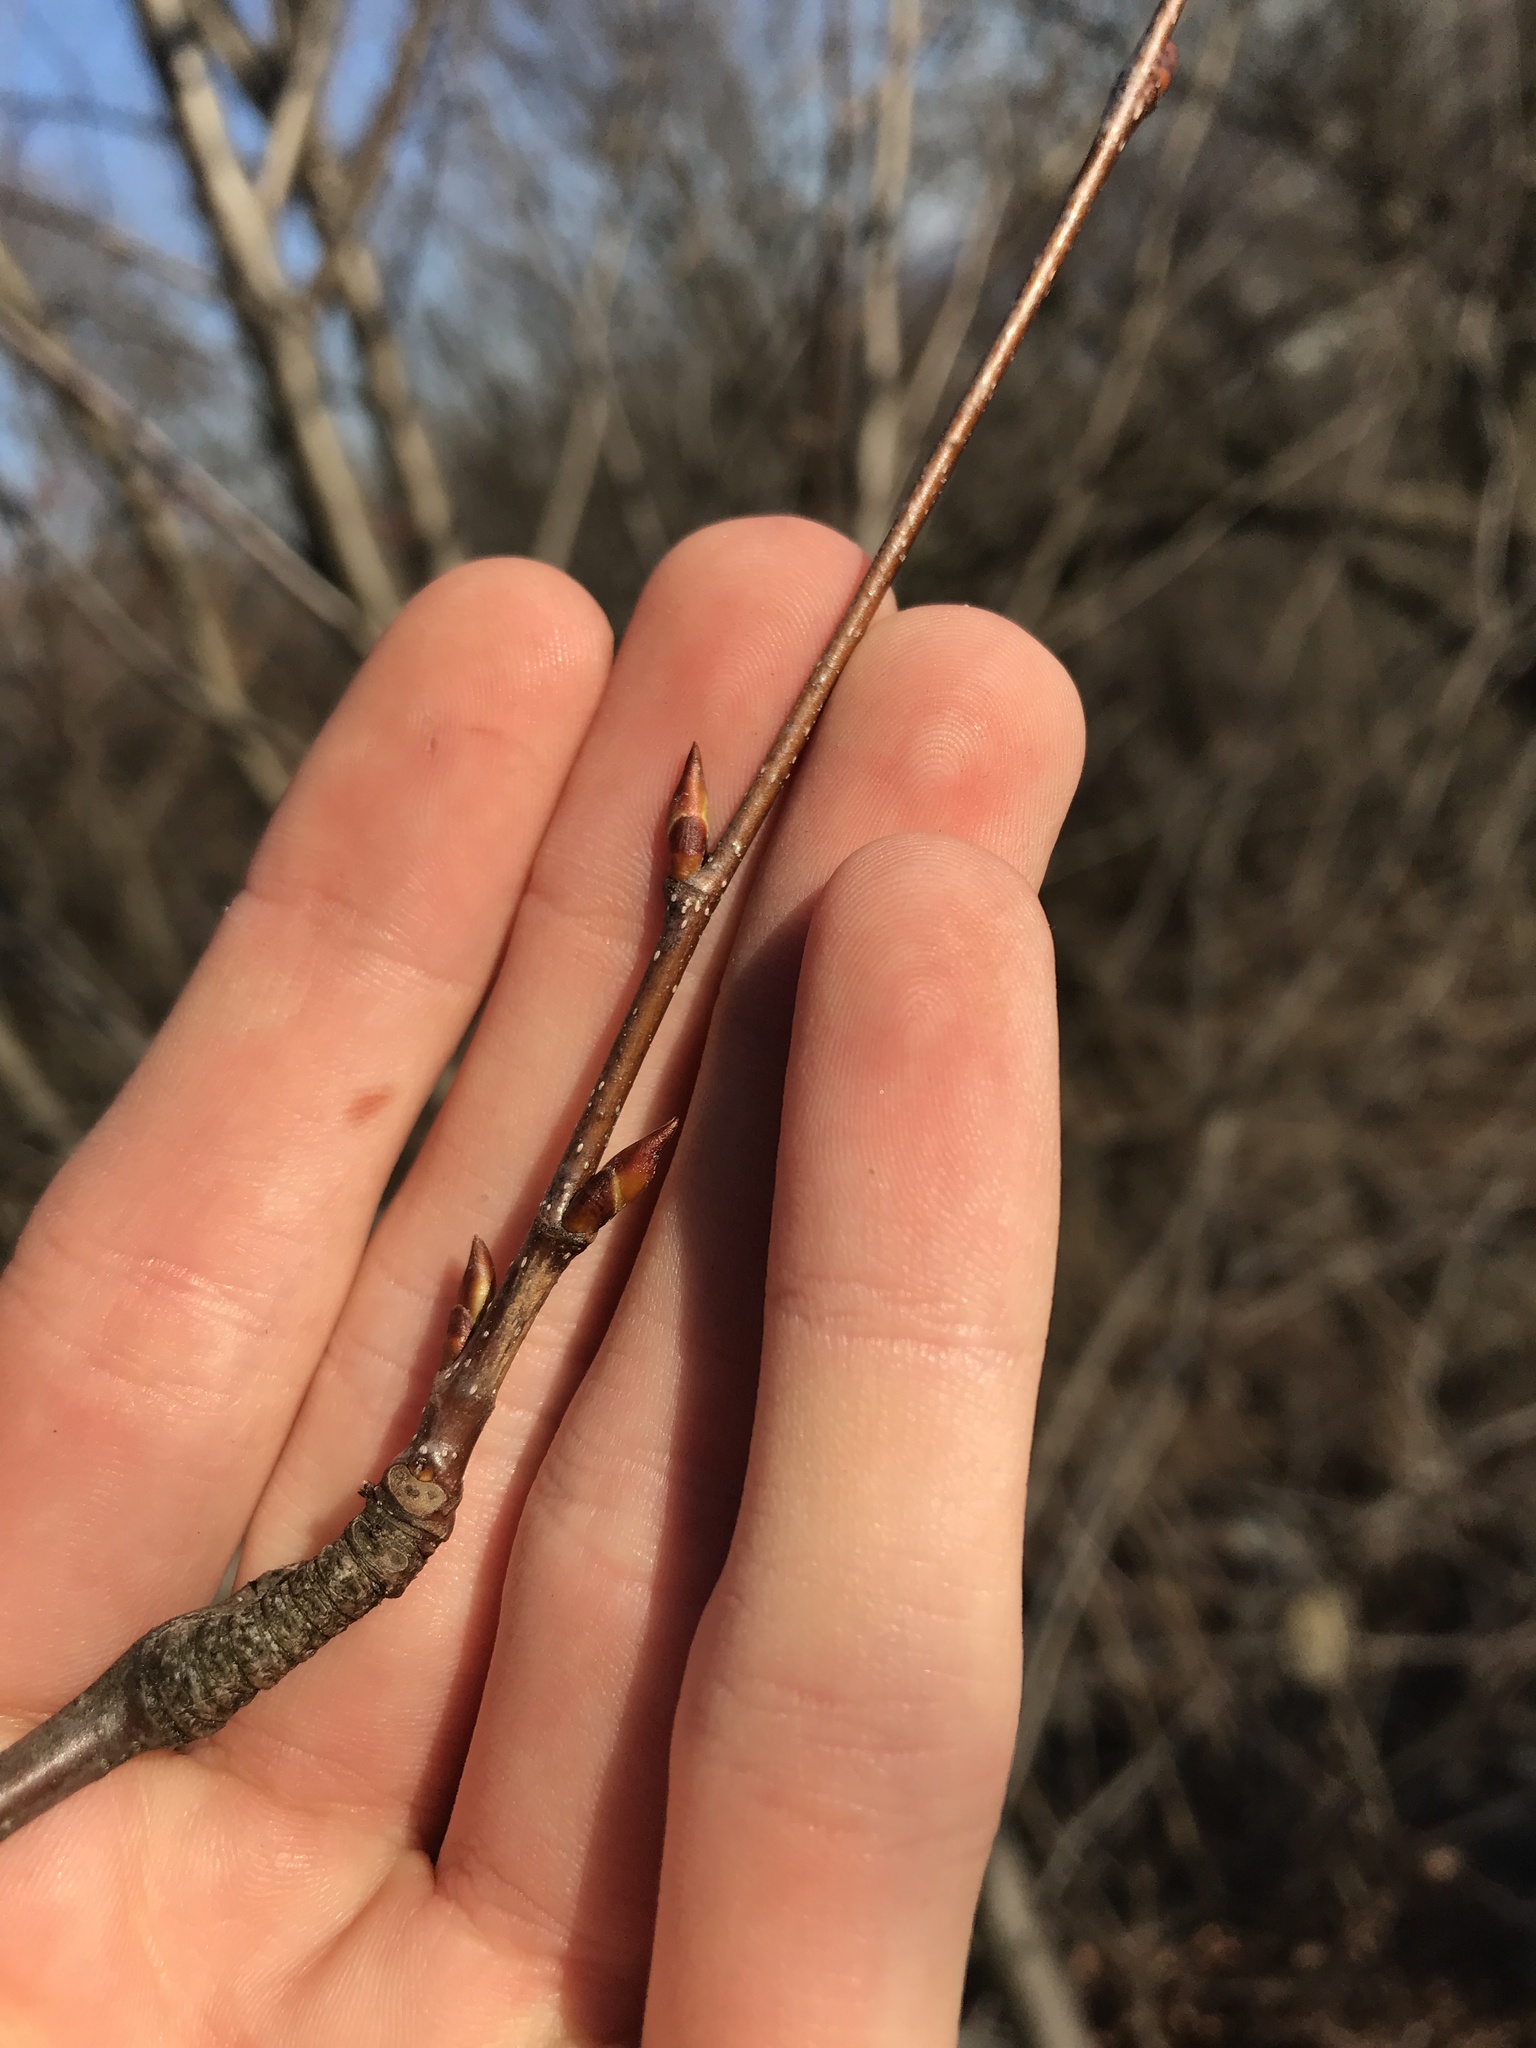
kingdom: Plantae
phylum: Tracheophyta
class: Magnoliopsida
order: Fagales
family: Betulaceae
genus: Betula
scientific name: Betula lenta
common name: Black birch
